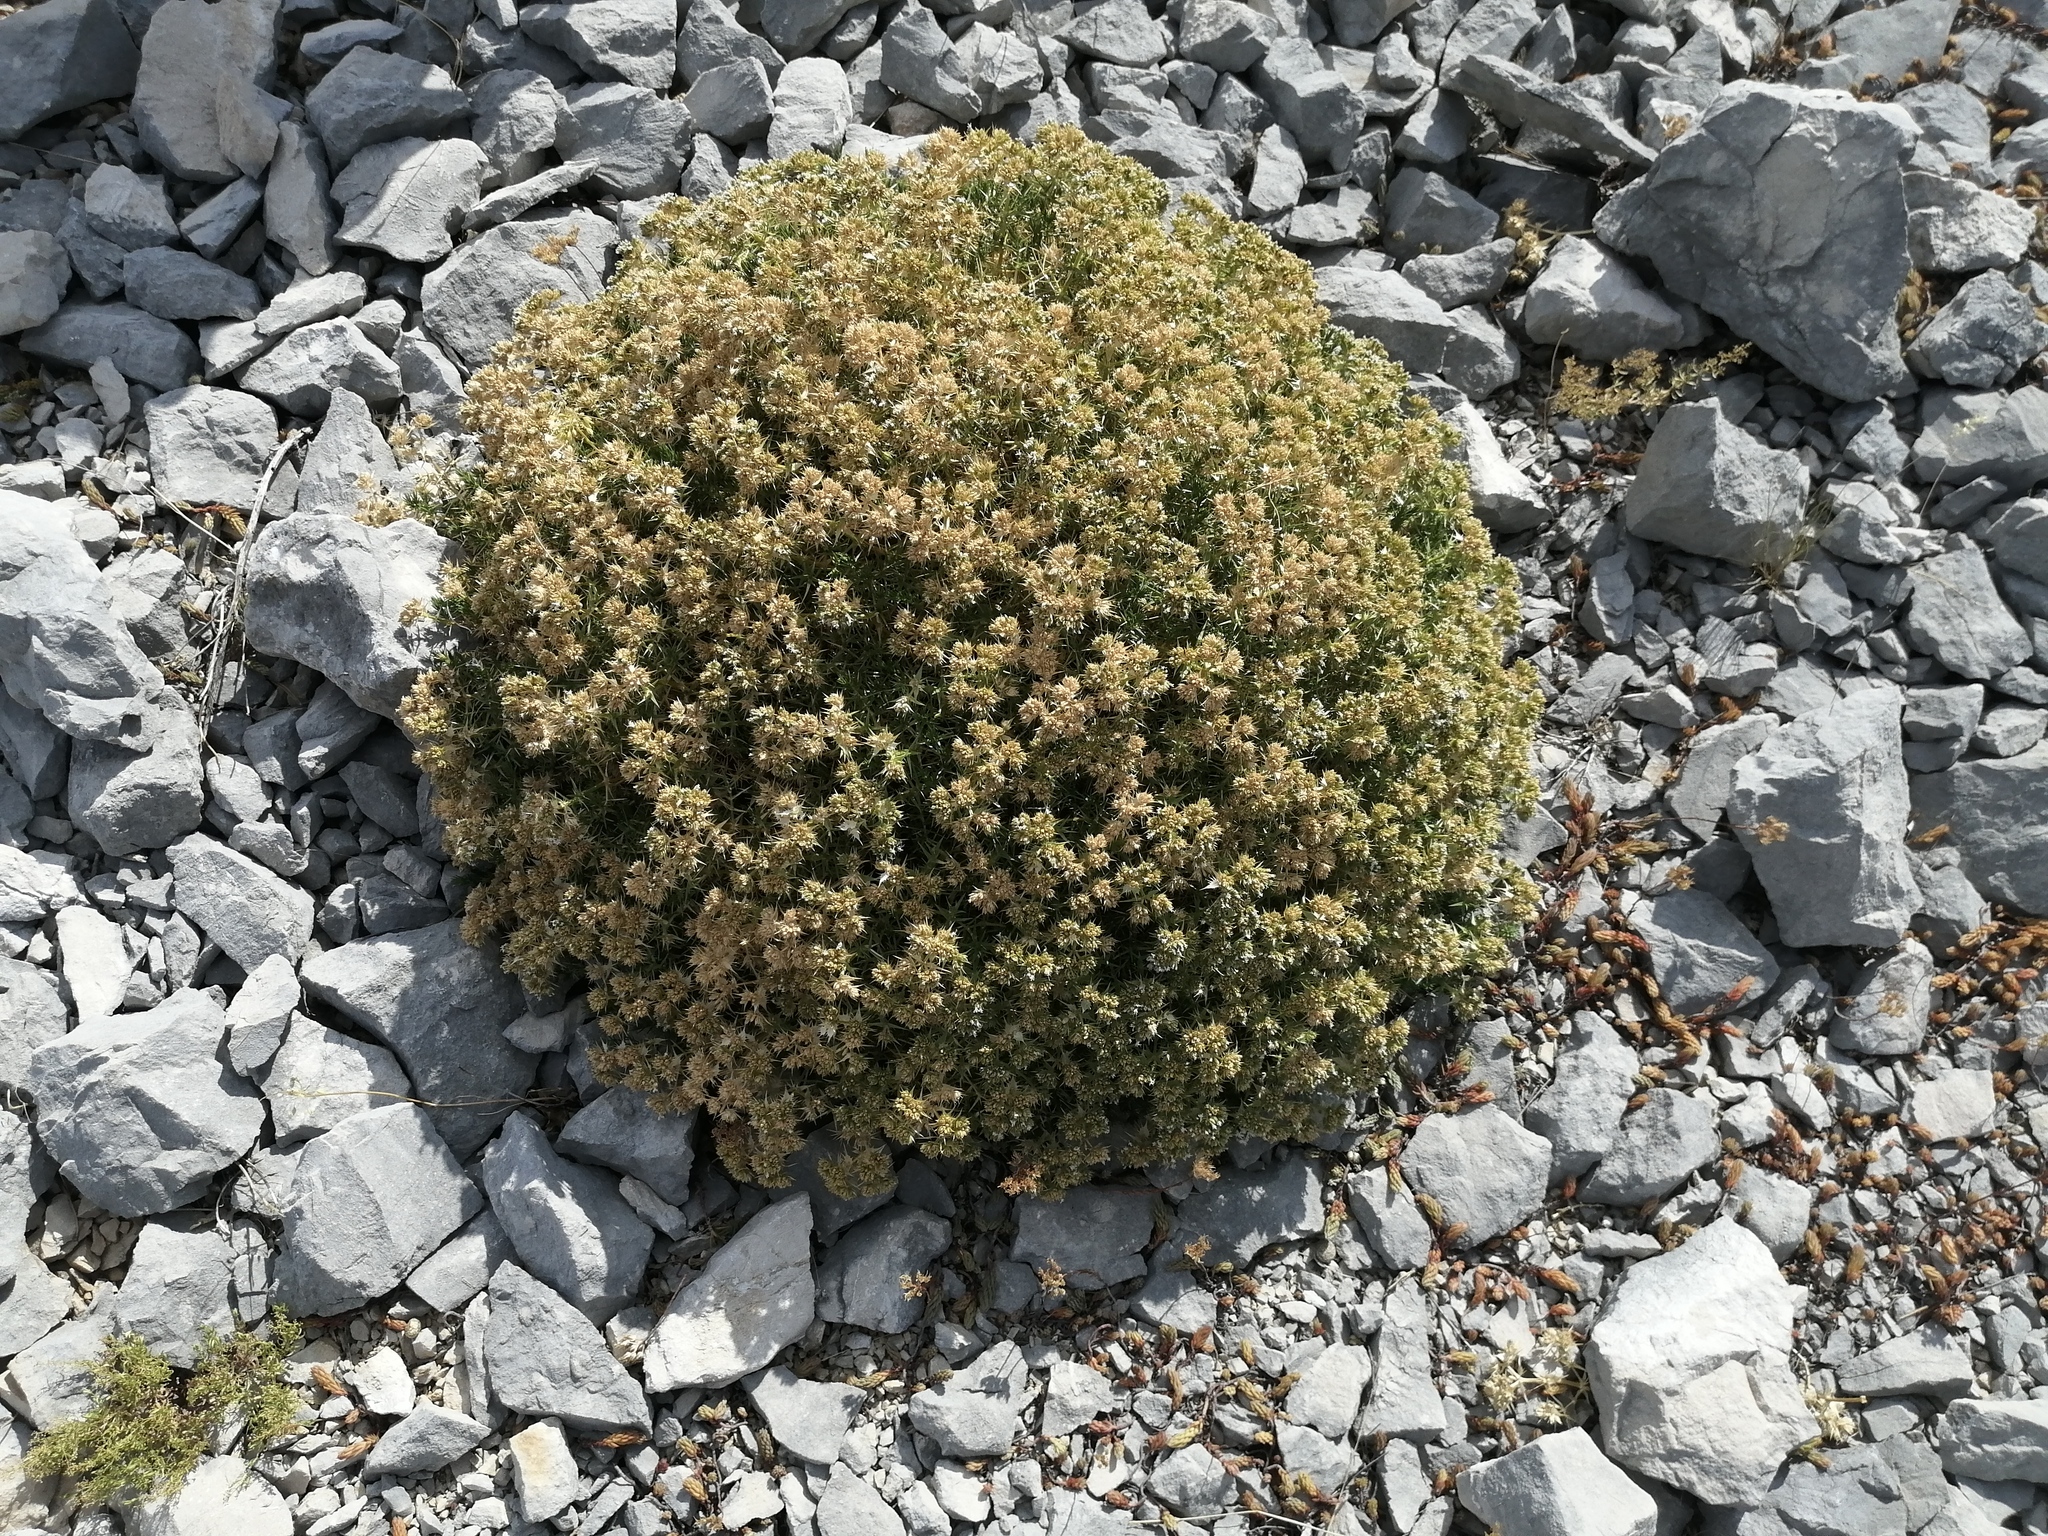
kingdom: Plantae
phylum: Tracheophyta
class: Magnoliopsida
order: Caryophyllales
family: Caryophyllaceae
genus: Drypis
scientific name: Drypis spinosa
